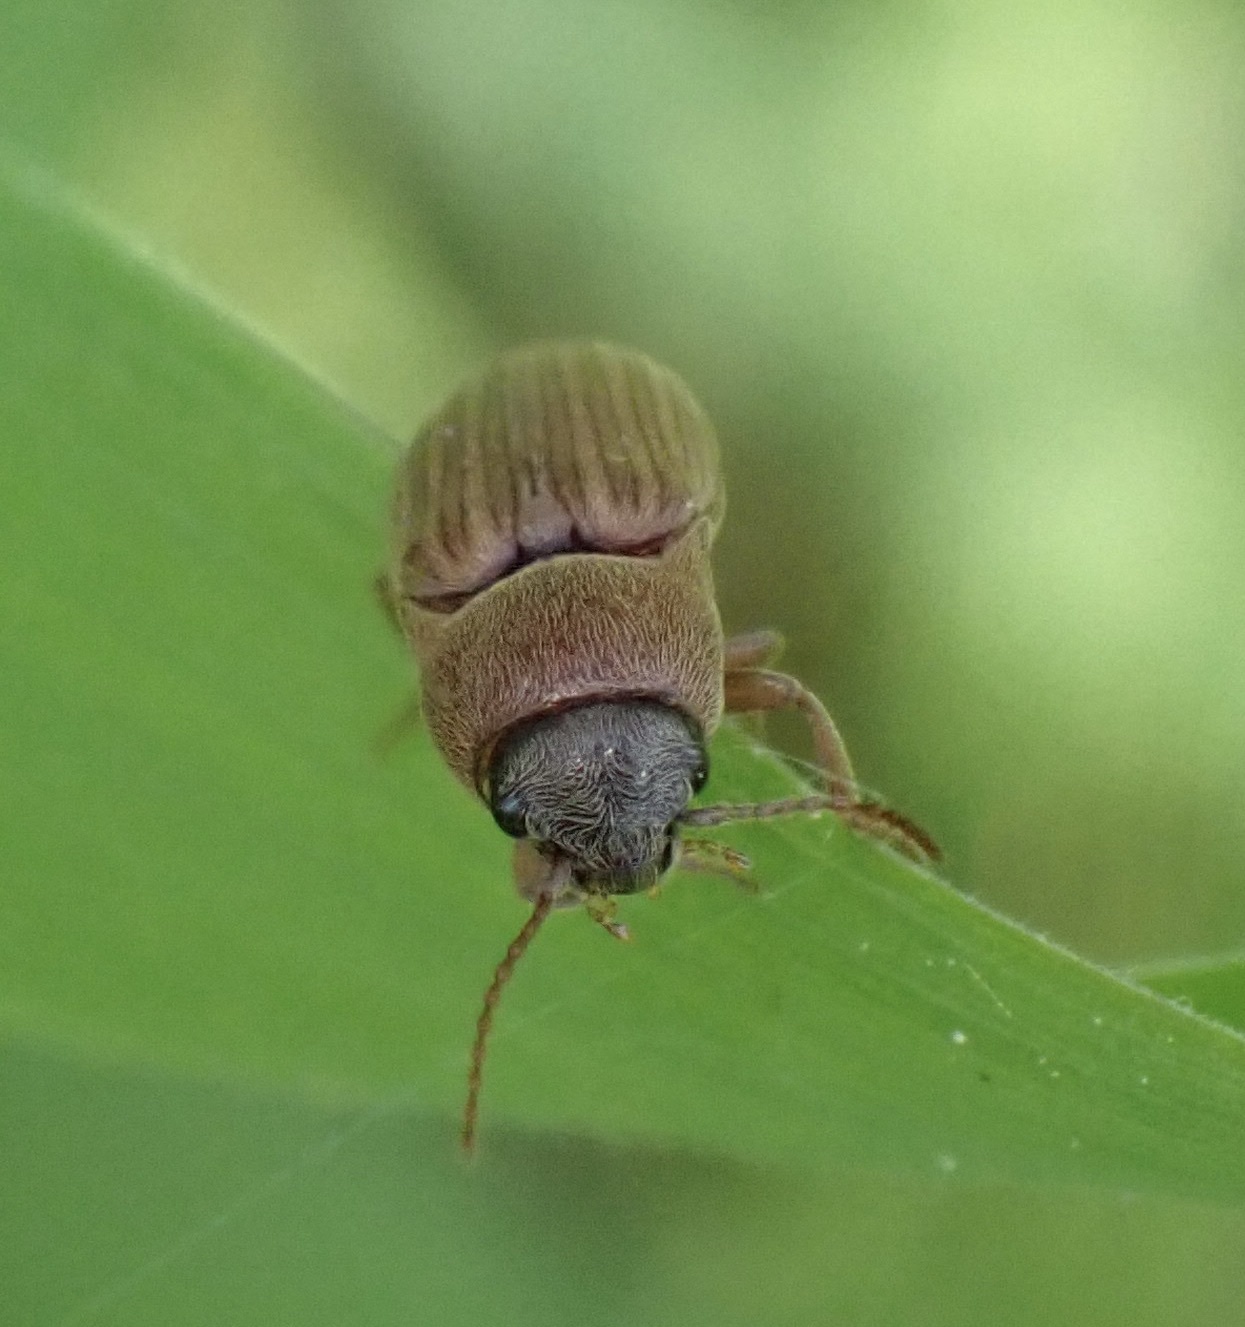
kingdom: Animalia
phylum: Arthropoda
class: Insecta
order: Coleoptera
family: Elateridae
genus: Agriotes
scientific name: Agriotes lineatus
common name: Lined click beetle
